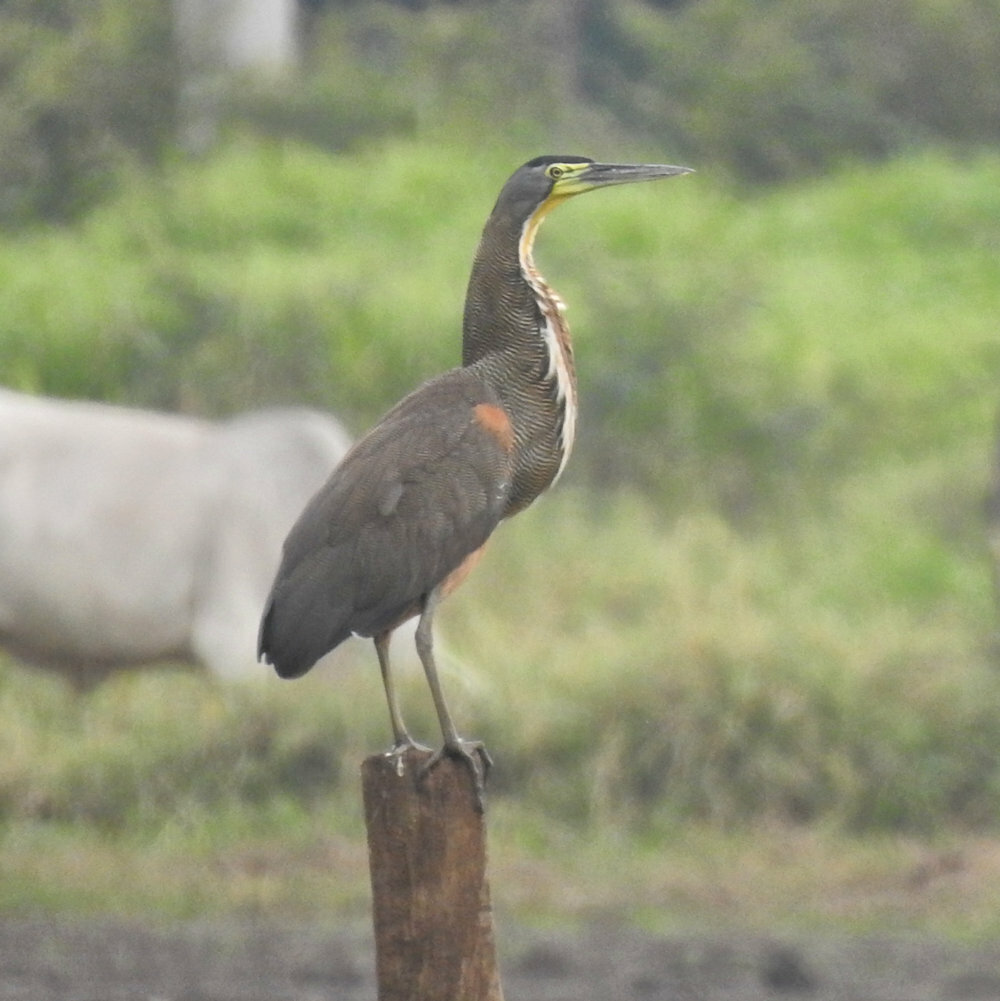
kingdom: Animalia
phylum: Chordata
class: Aves
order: Pelecaniformes
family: Ardeidae
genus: Tigrisoma
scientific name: Tigrisoma mexicanum
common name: Bare-throated tiger-heron
